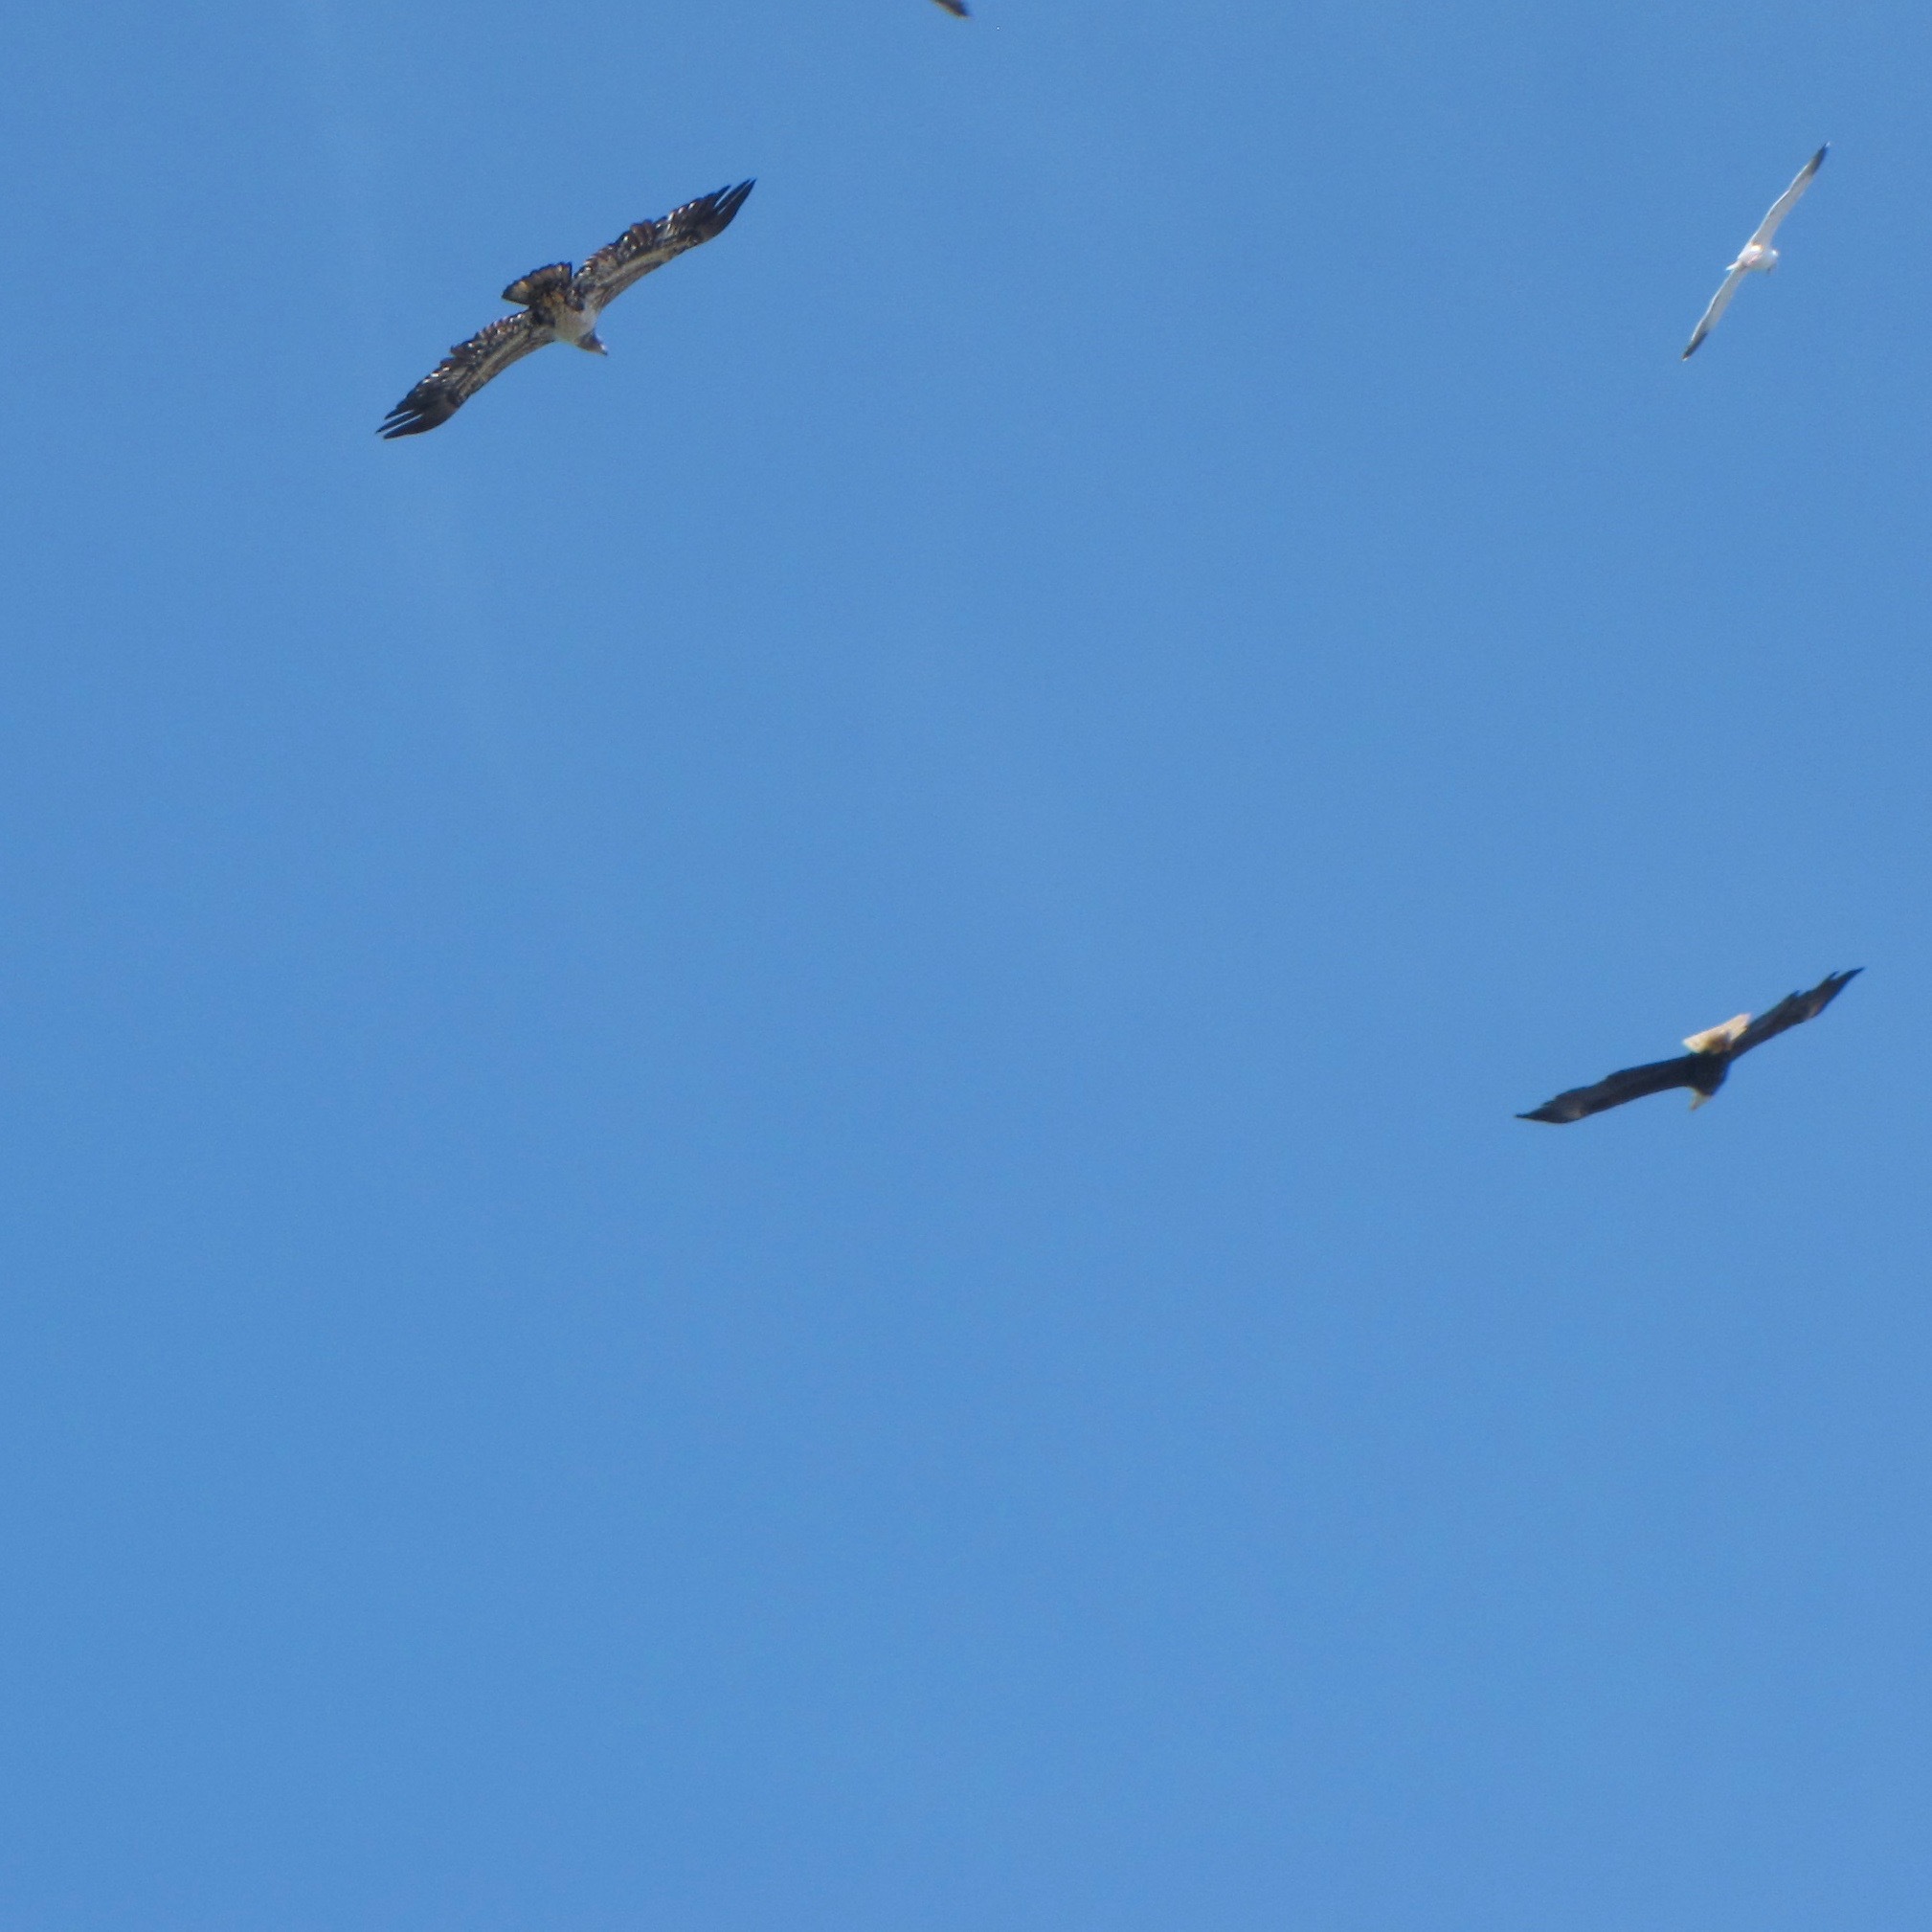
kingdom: Animalia
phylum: Chordata
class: Aves
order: Accipitriformes
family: Accipitridae
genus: Haliaeetus
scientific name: Haliaeetus leucocephalus
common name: Bald eagle
